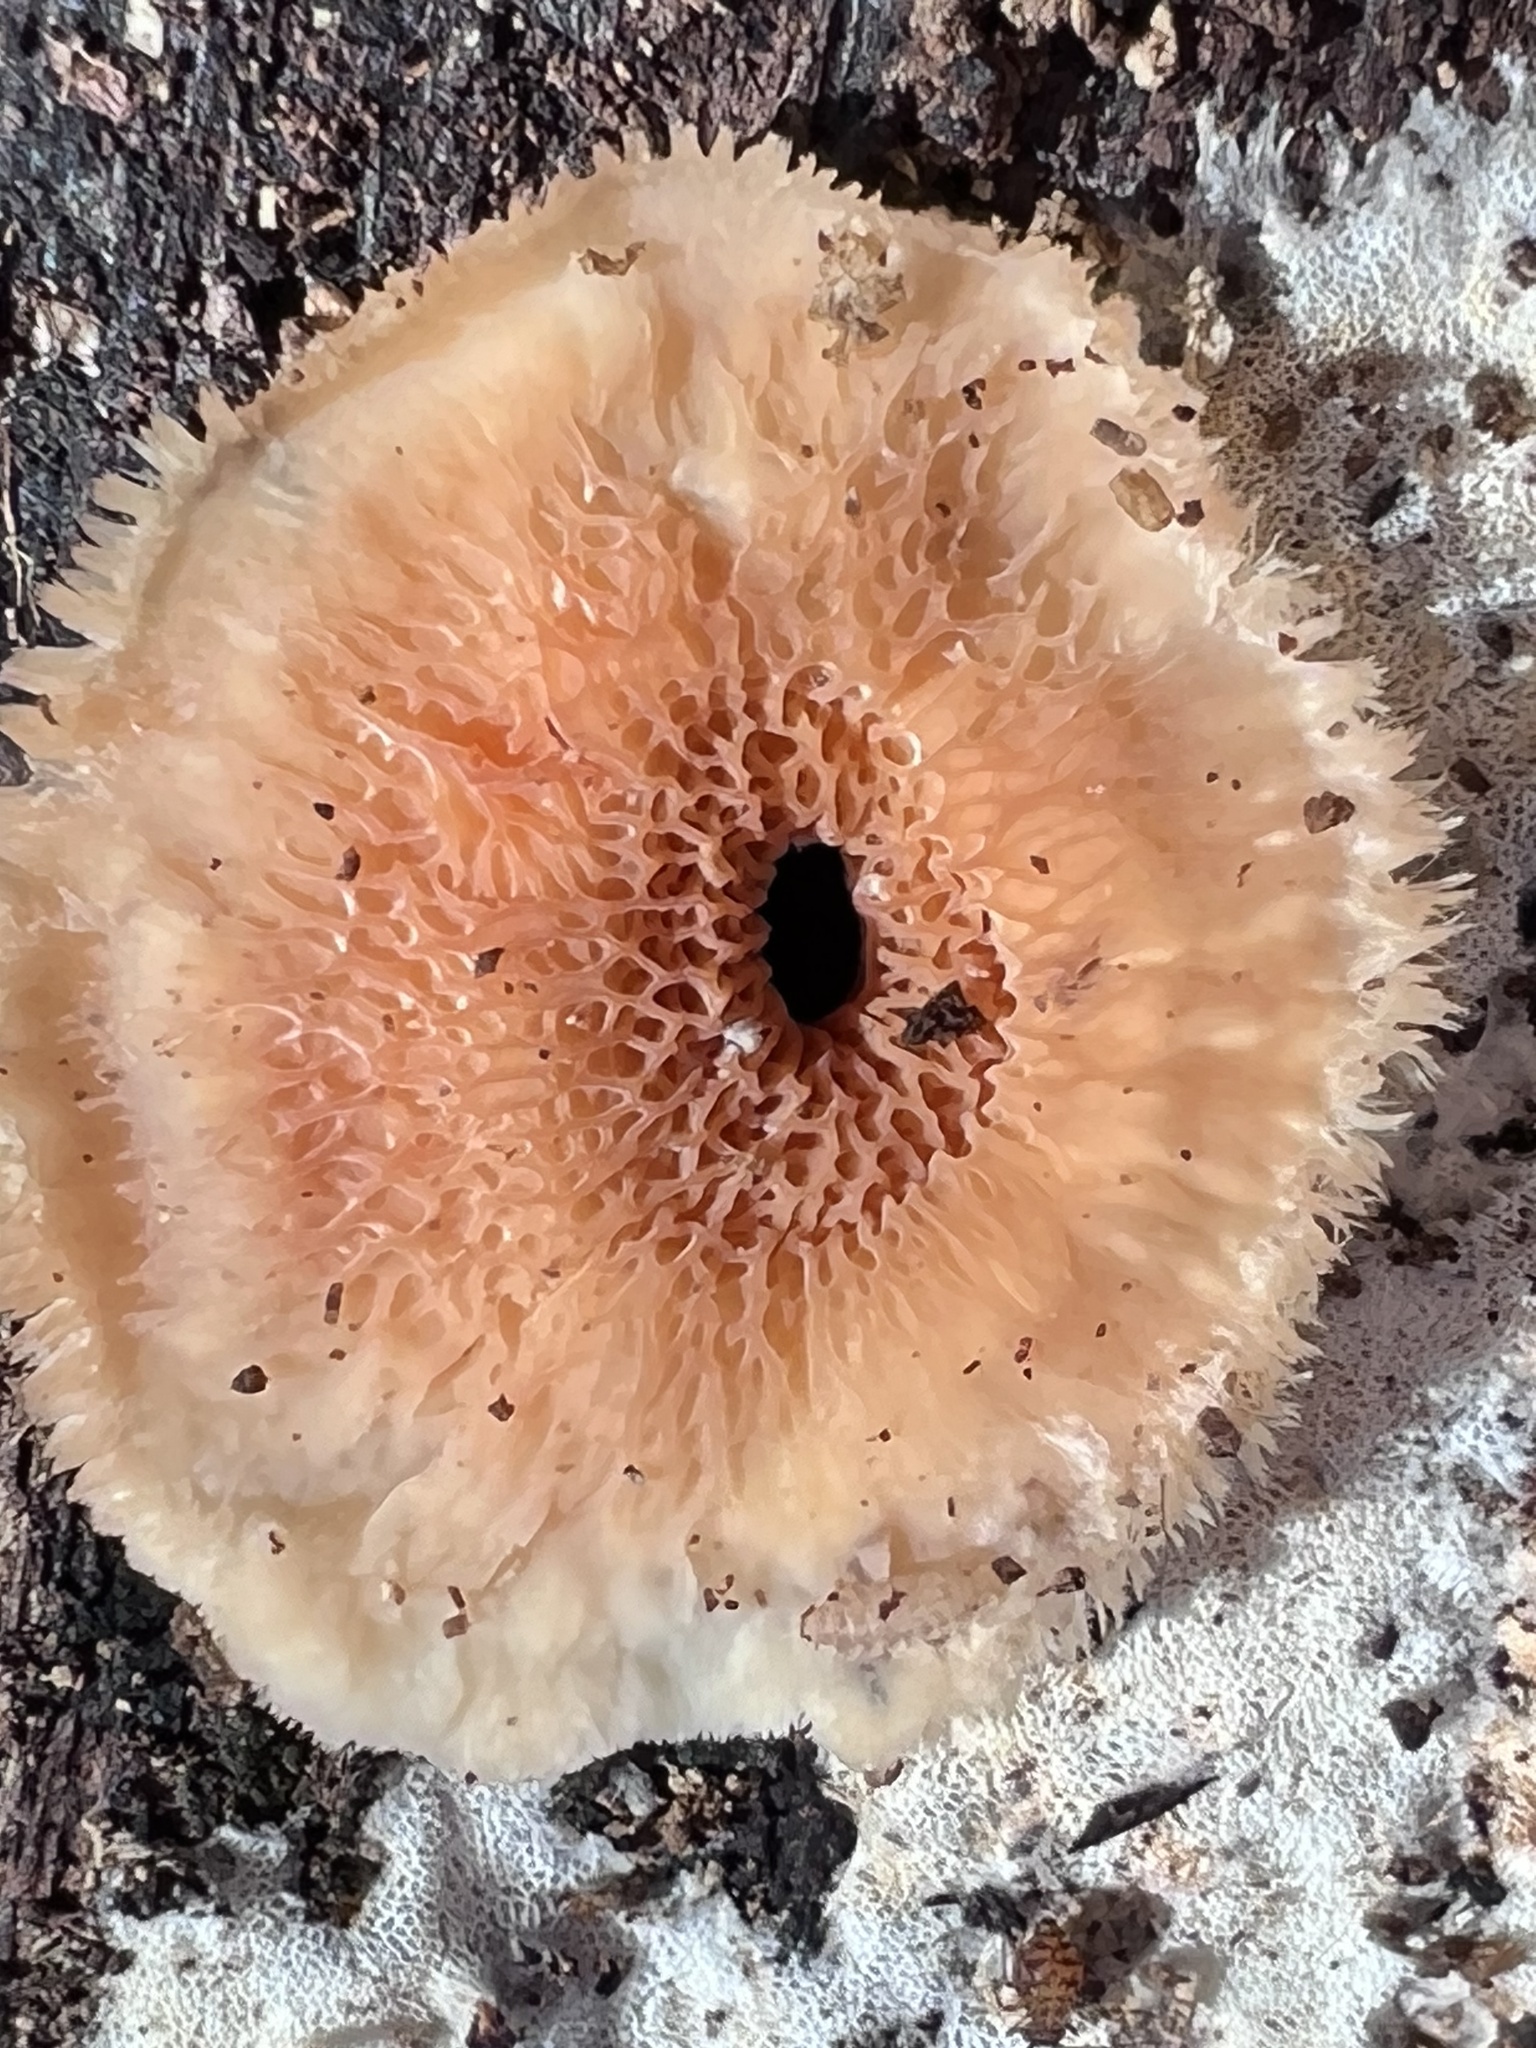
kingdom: Fungi
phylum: Basidiomycota
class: Agaricomycetes
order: Polyporales
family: Meruliaceae
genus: Phlebia
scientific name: Phlebia tremellosa
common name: Jelly rot
